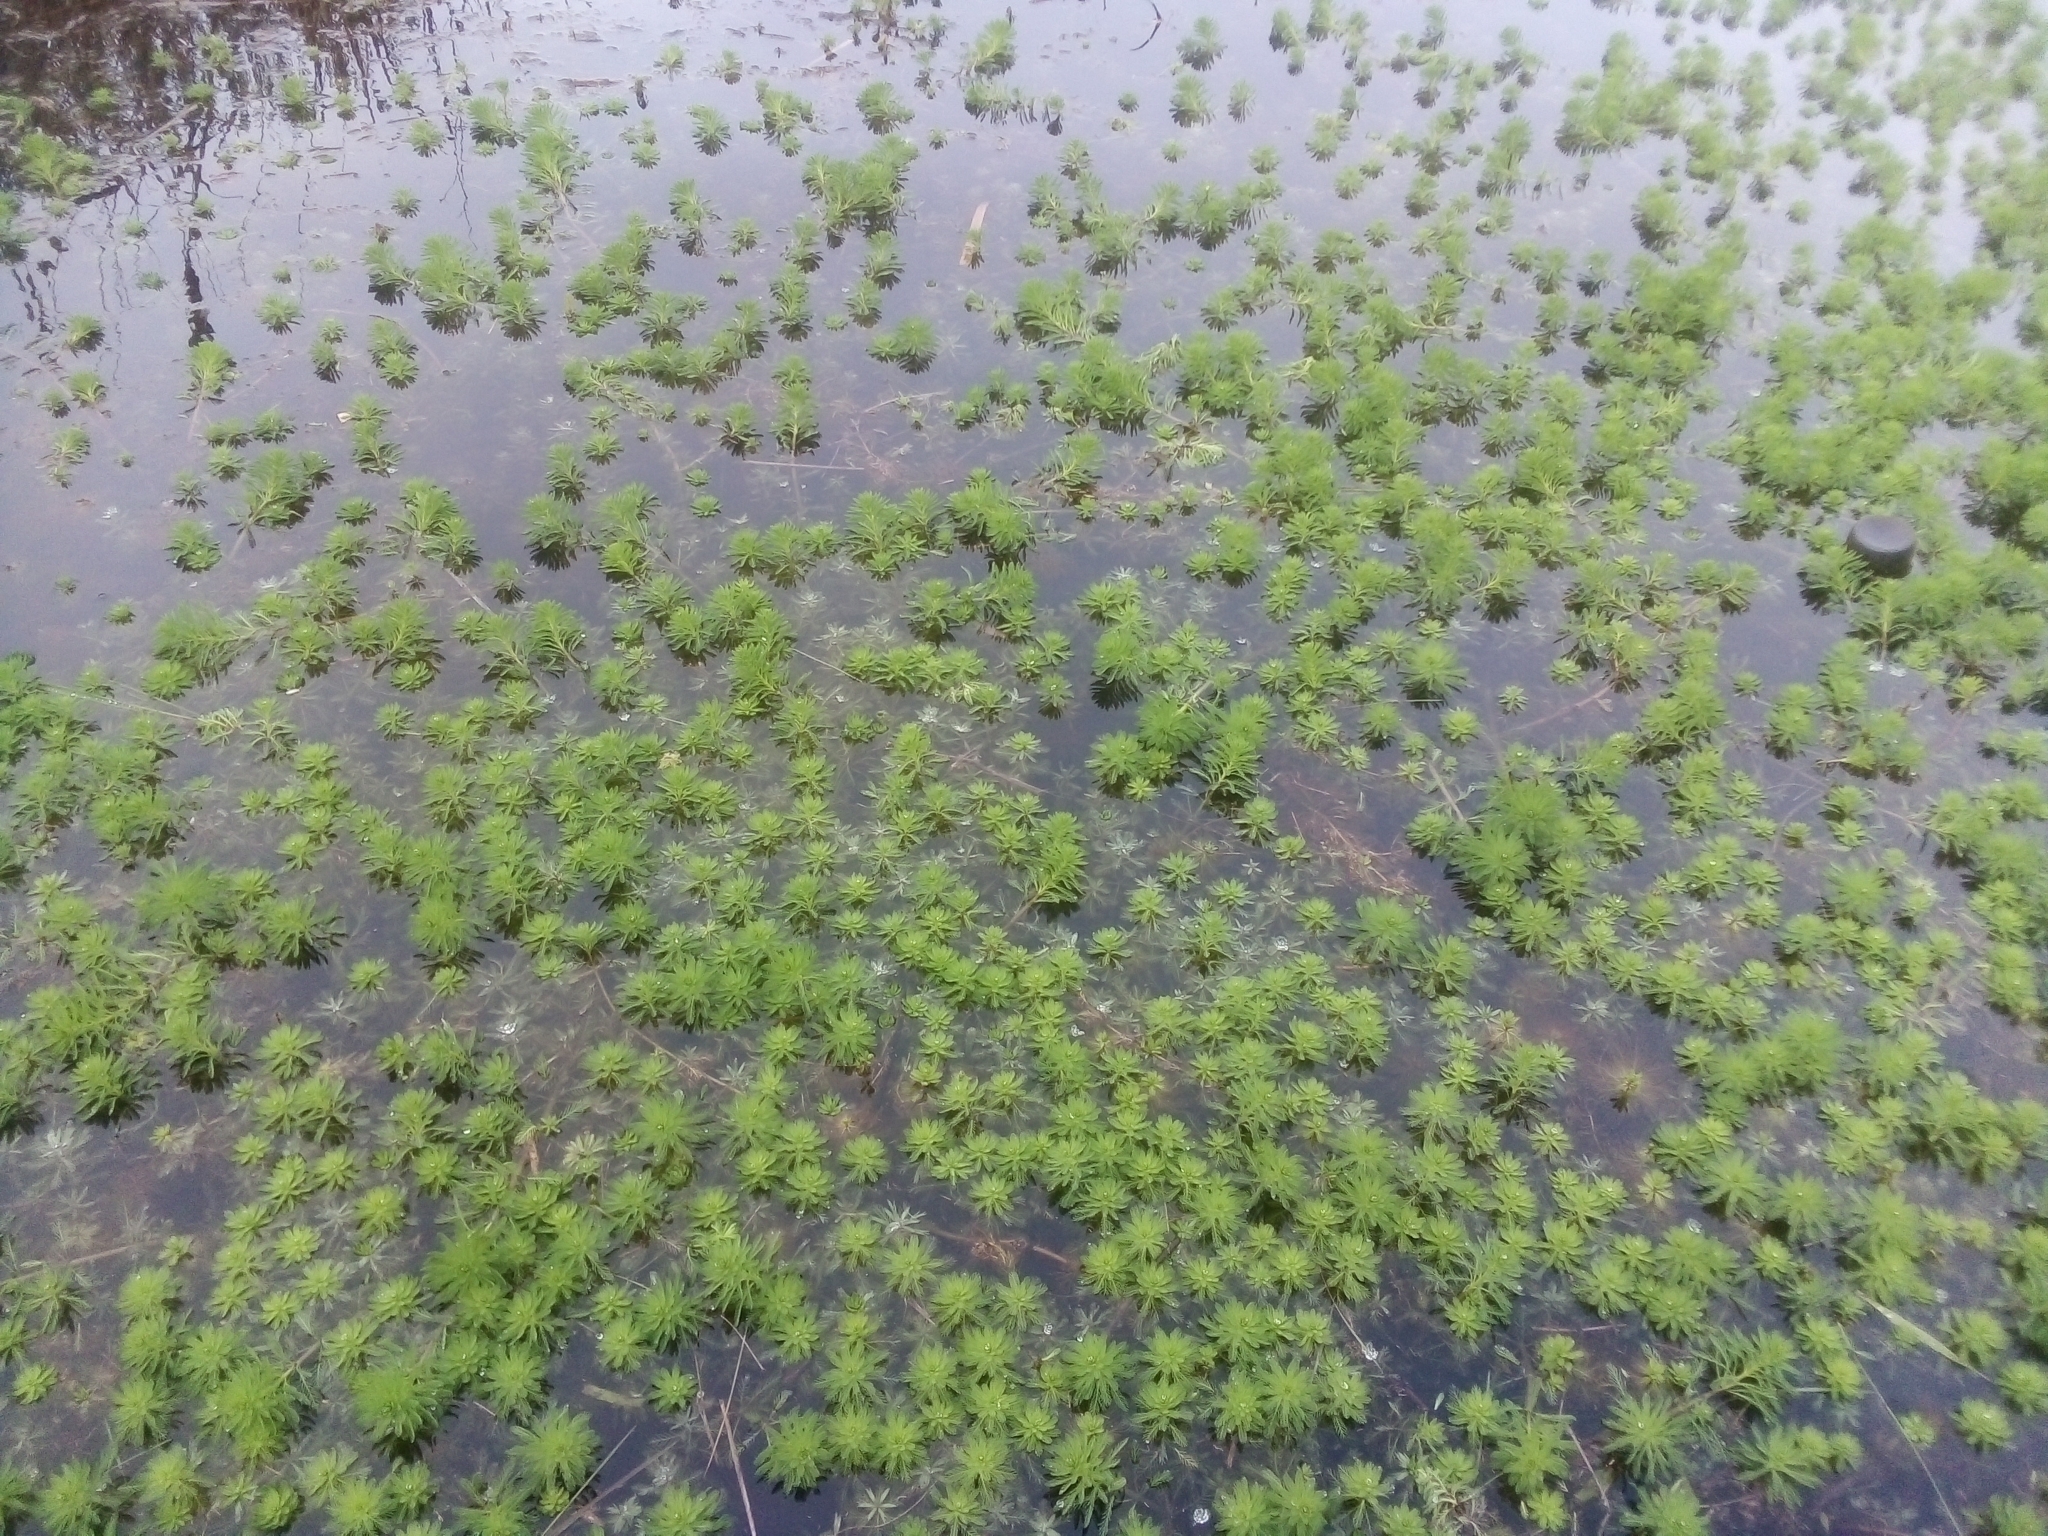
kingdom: Plantae
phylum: Tracheophyta
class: Magnoliopsida
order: Saxifragales
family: Haloragaceae
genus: Myriophyllum
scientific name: Myriophyllum aquaticum
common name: Parrot's feather
